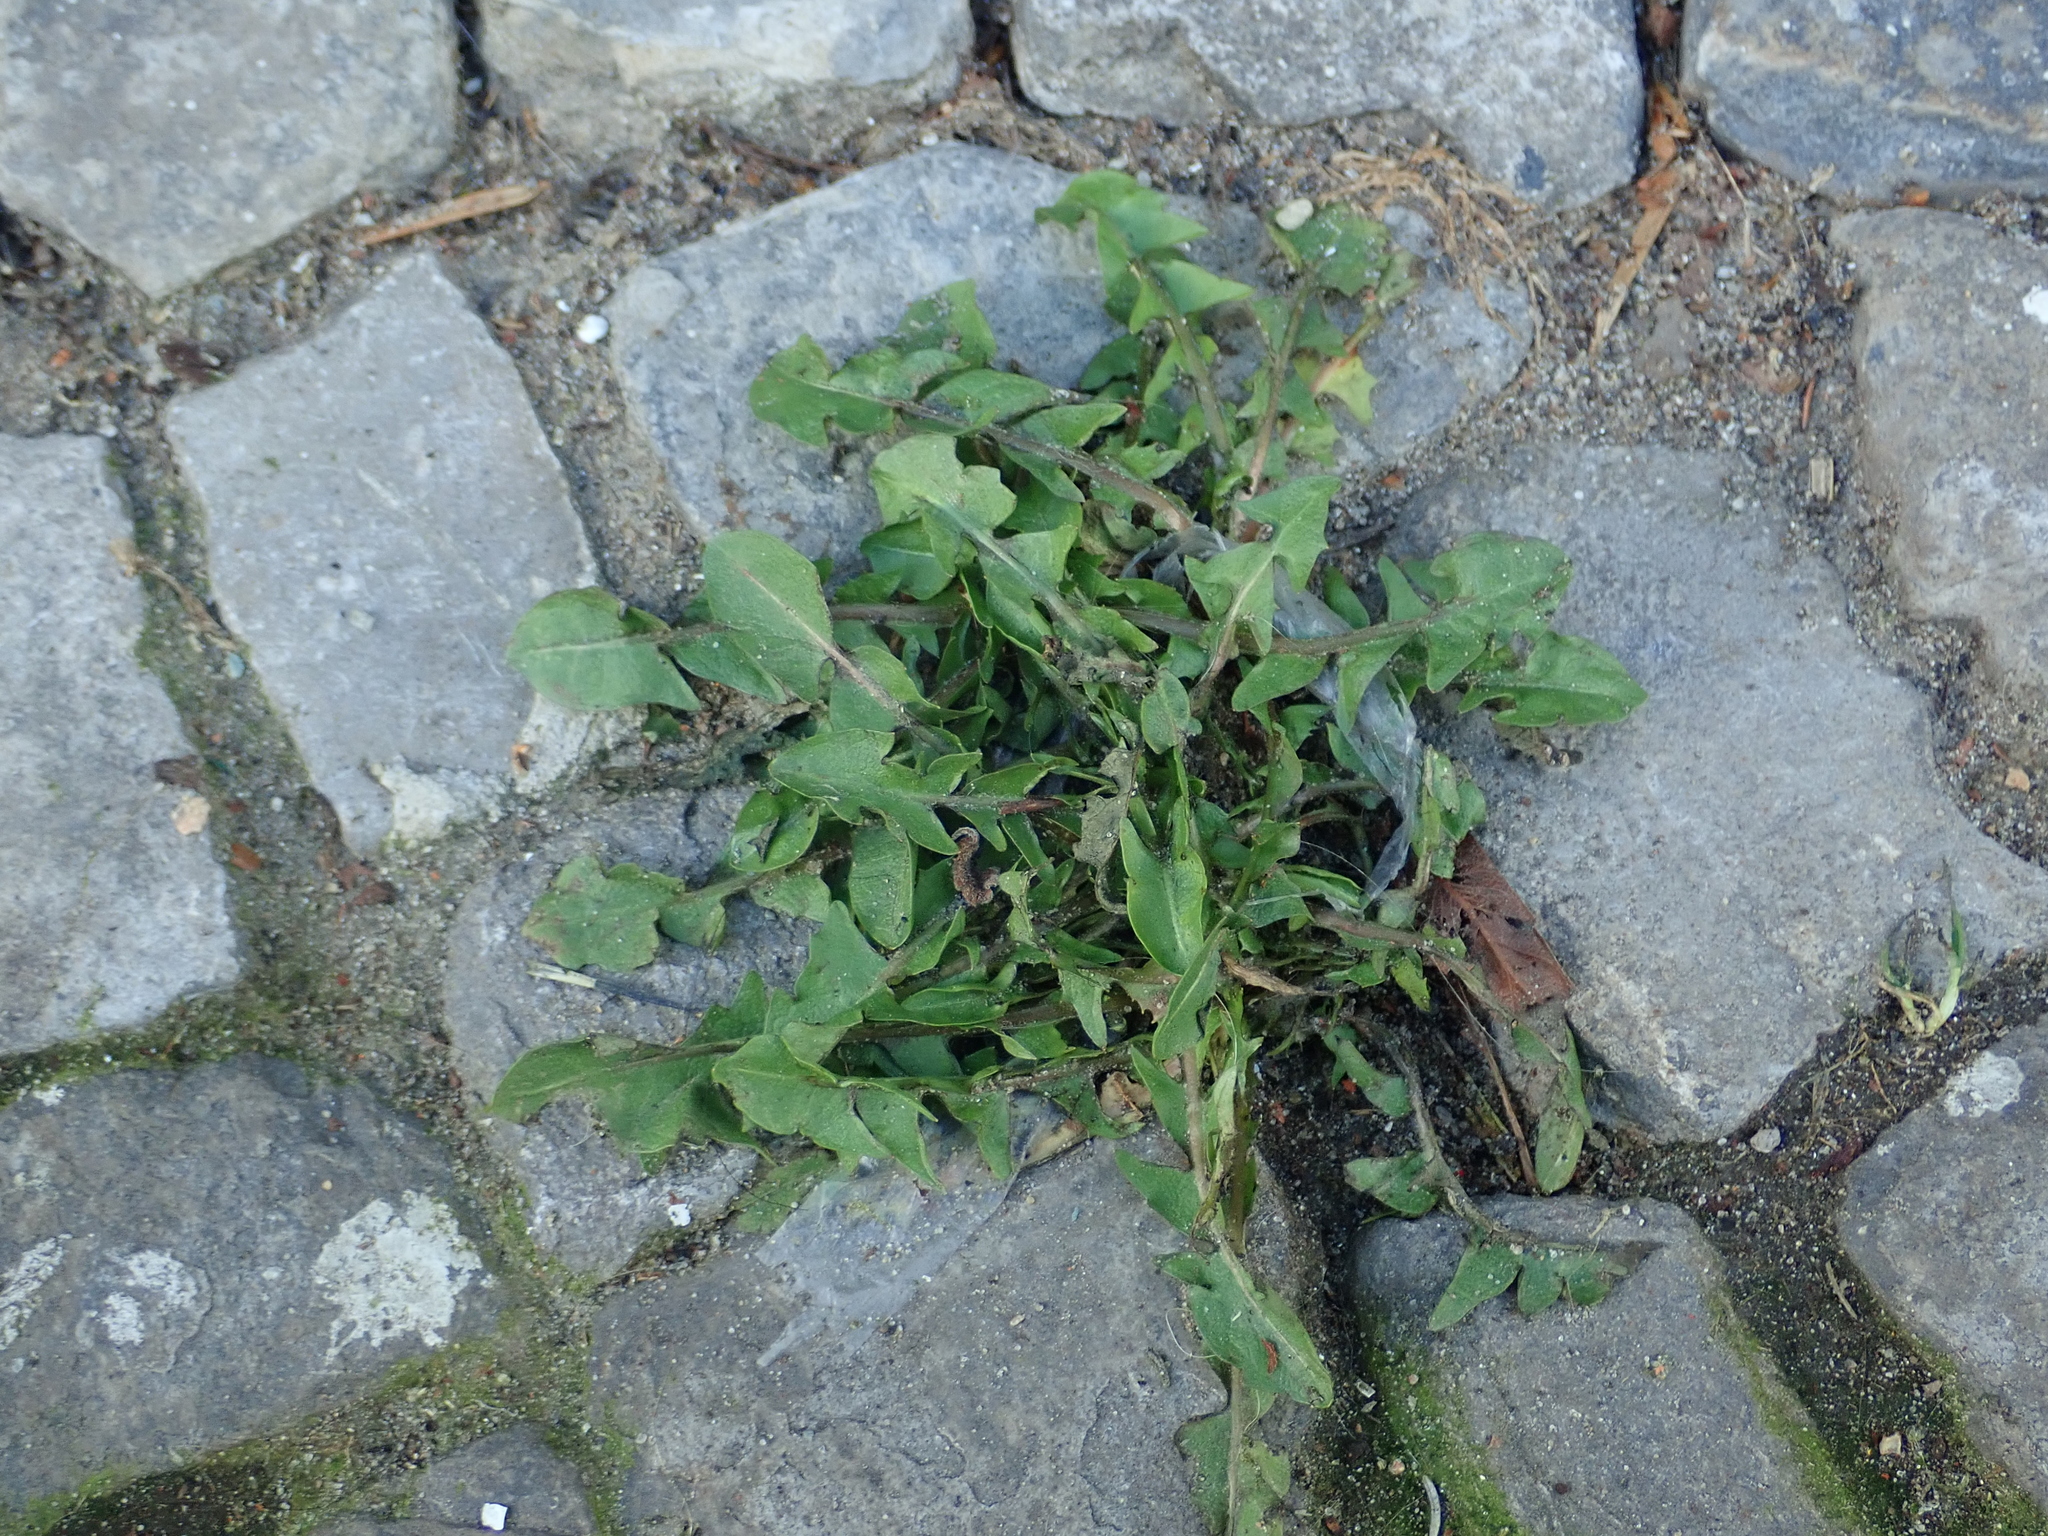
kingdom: Plantae
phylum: Tracheophyta
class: Magnoliopsida
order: Asterales
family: Asteraceae
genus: Taraxacum
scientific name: Taraxacum officinale
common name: Common dandelion
